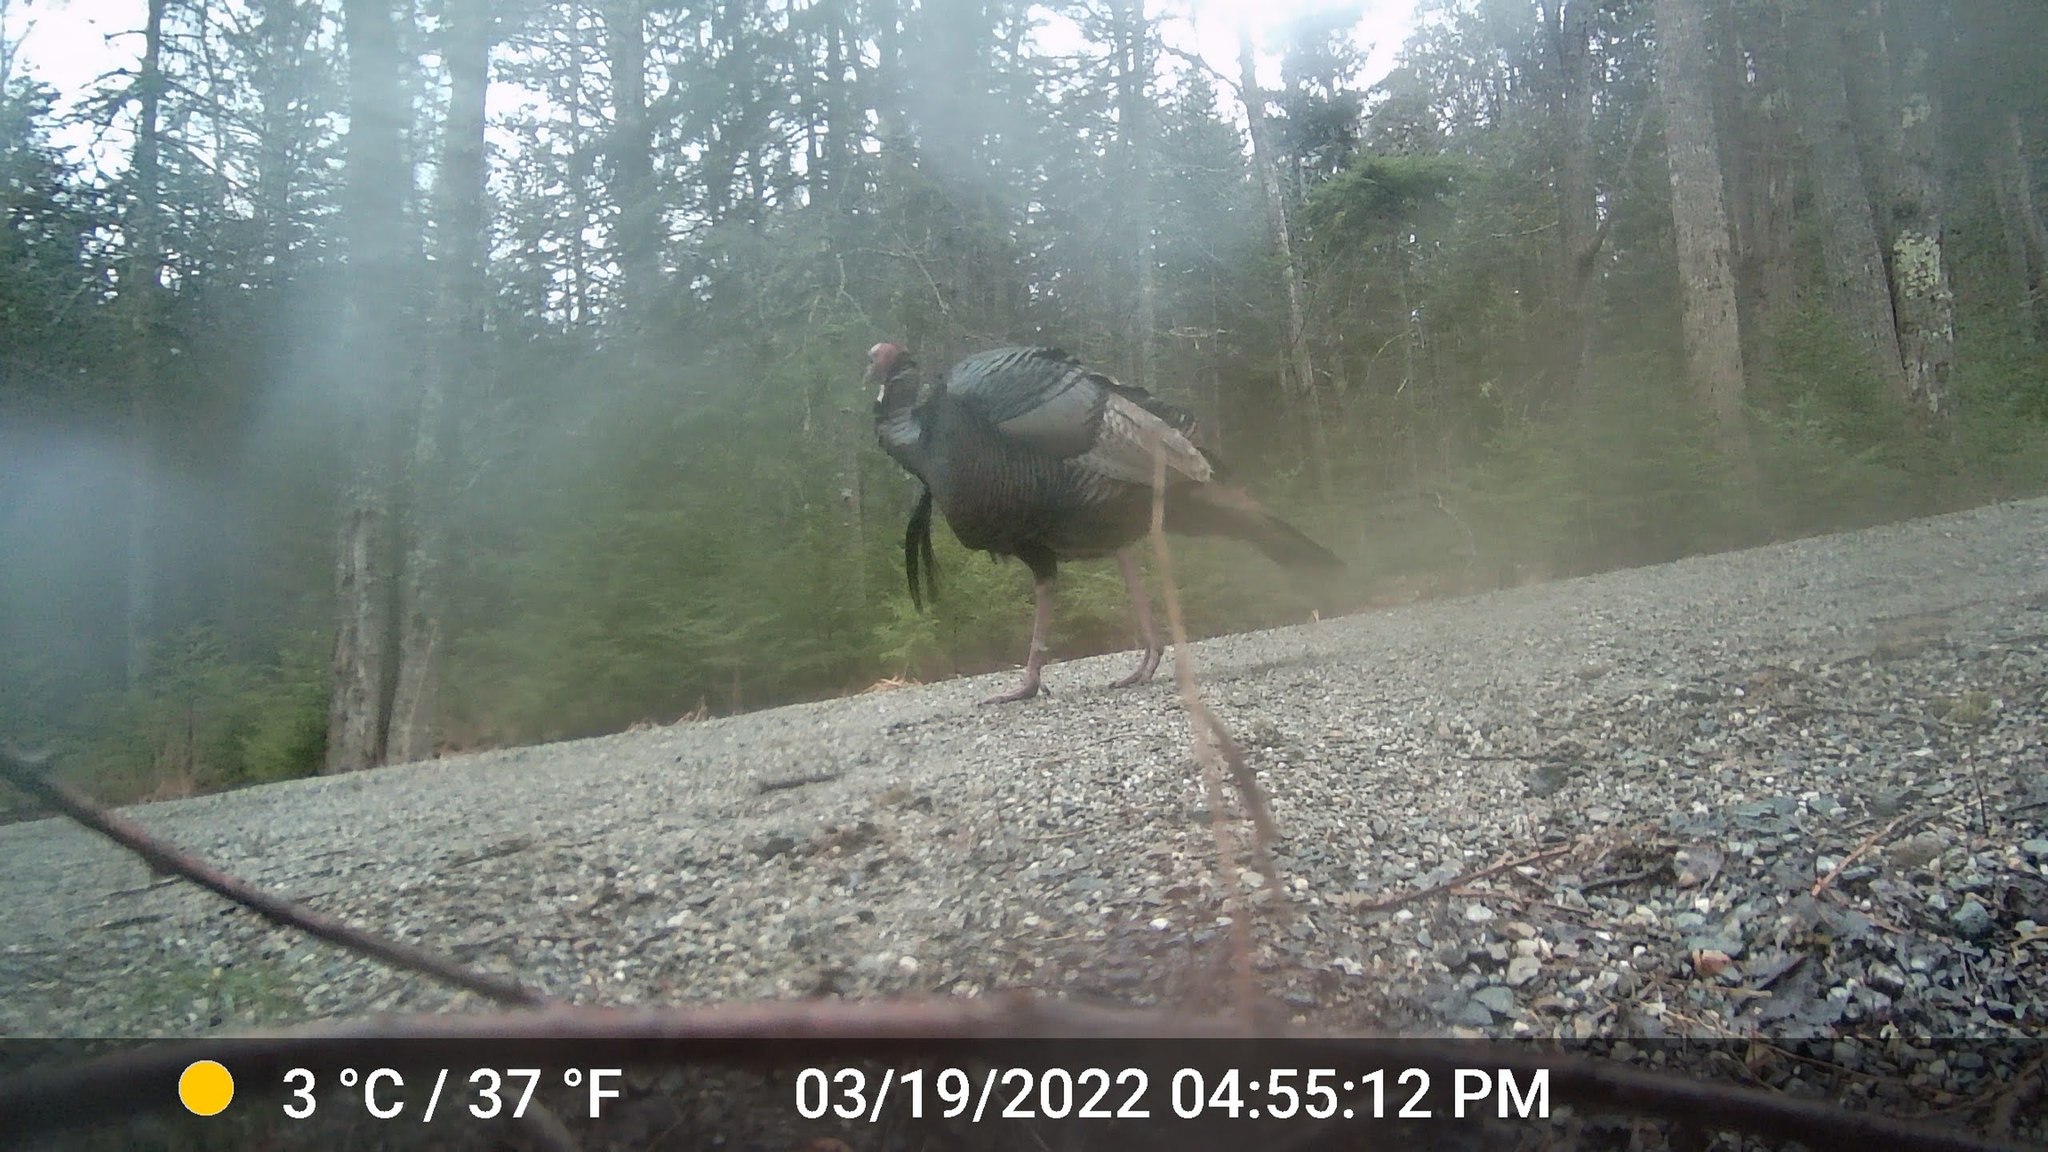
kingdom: Animalia
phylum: Chordata
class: Aves
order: Galliformes
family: Phasianidae
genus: Meleagris
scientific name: Meleagris gallopavo
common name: Wild turkey
